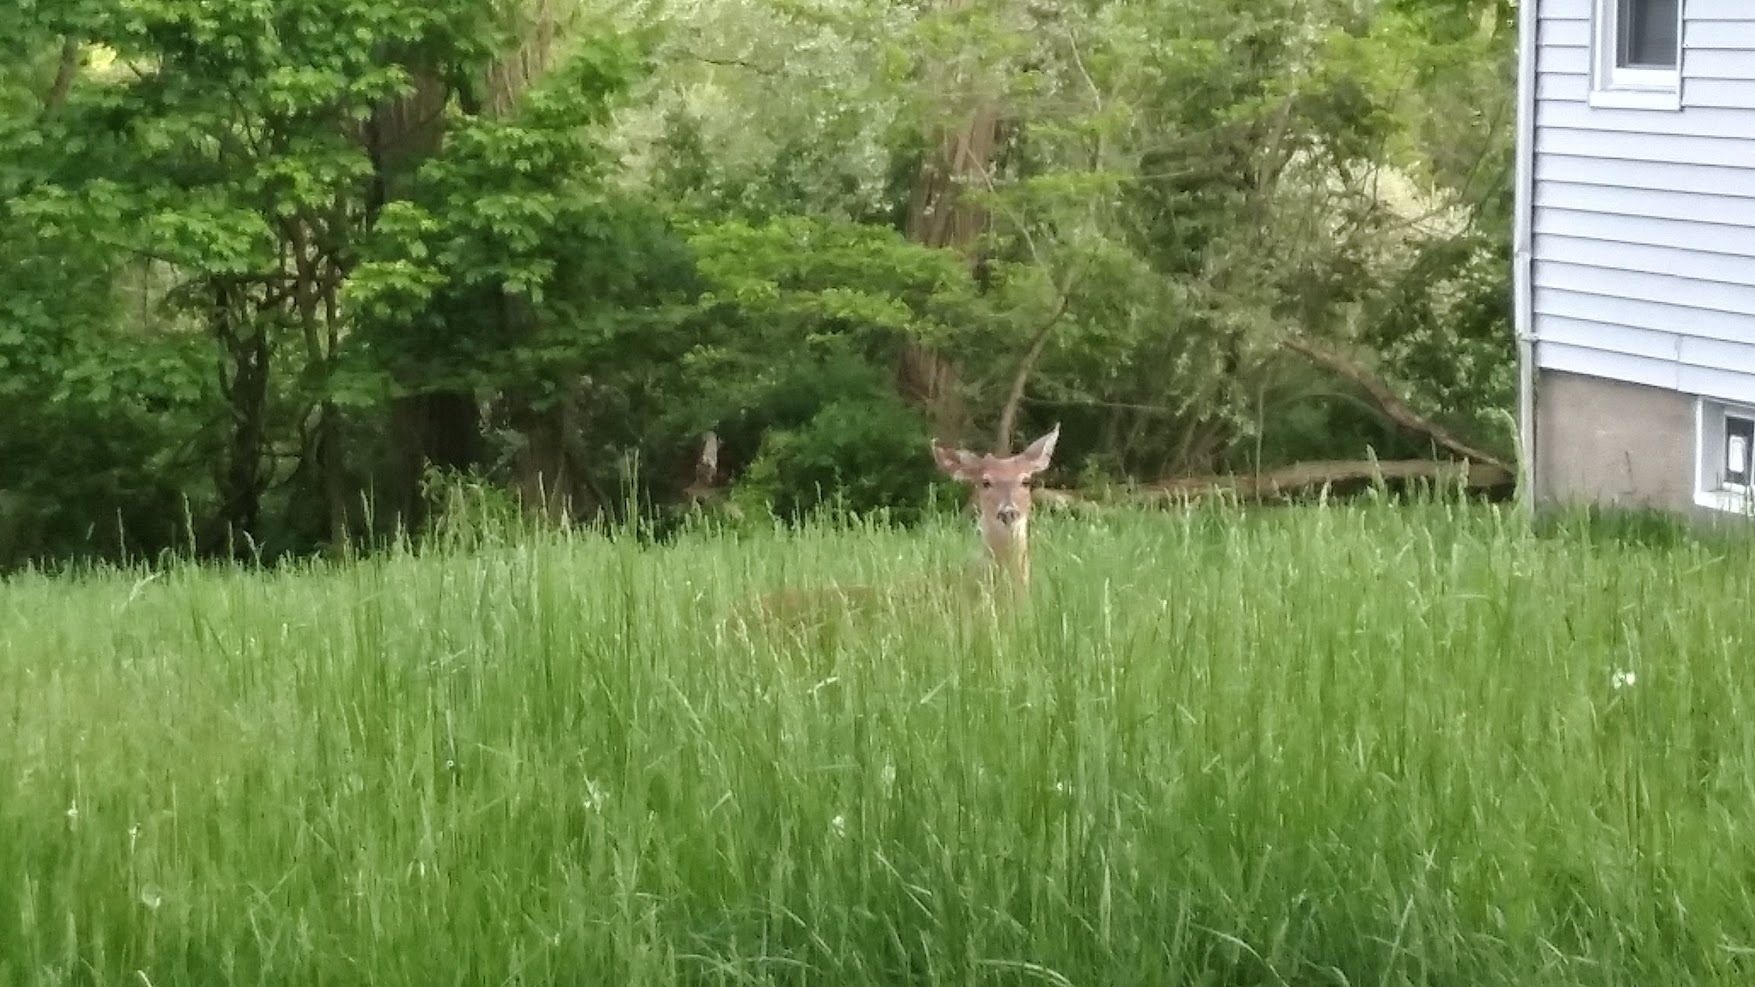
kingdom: Animalia
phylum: Chordata
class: Mammalia
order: Artiodactyla
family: Cervidae
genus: Odocoileus
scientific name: Odocoileus virginianus
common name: White-tailed deer
